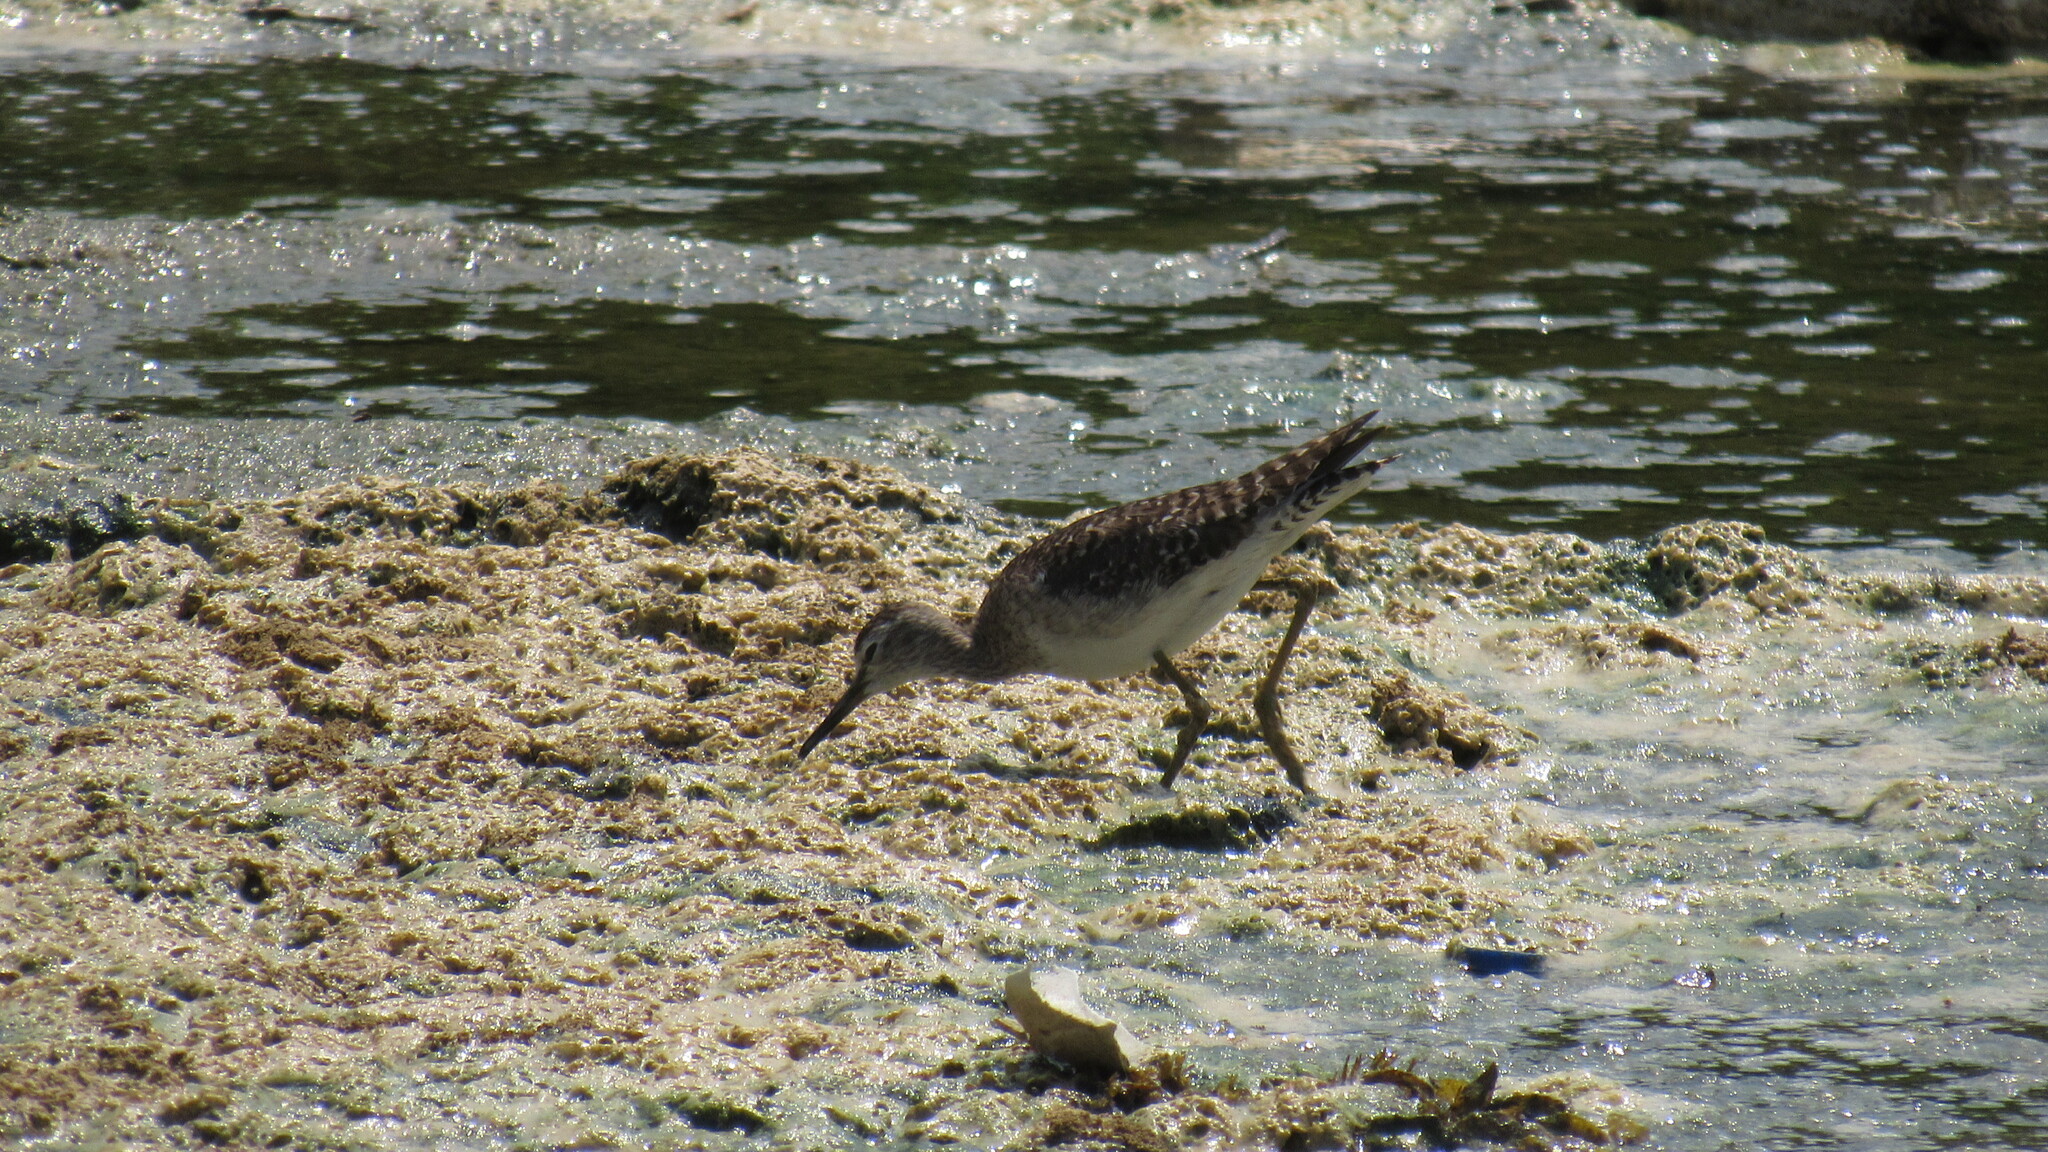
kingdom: Animalia
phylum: Chordata
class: Aves
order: Charadriiformes
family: Scolopacidae
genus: Tringa
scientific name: Tringa glareola
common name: Wood sandpiper
